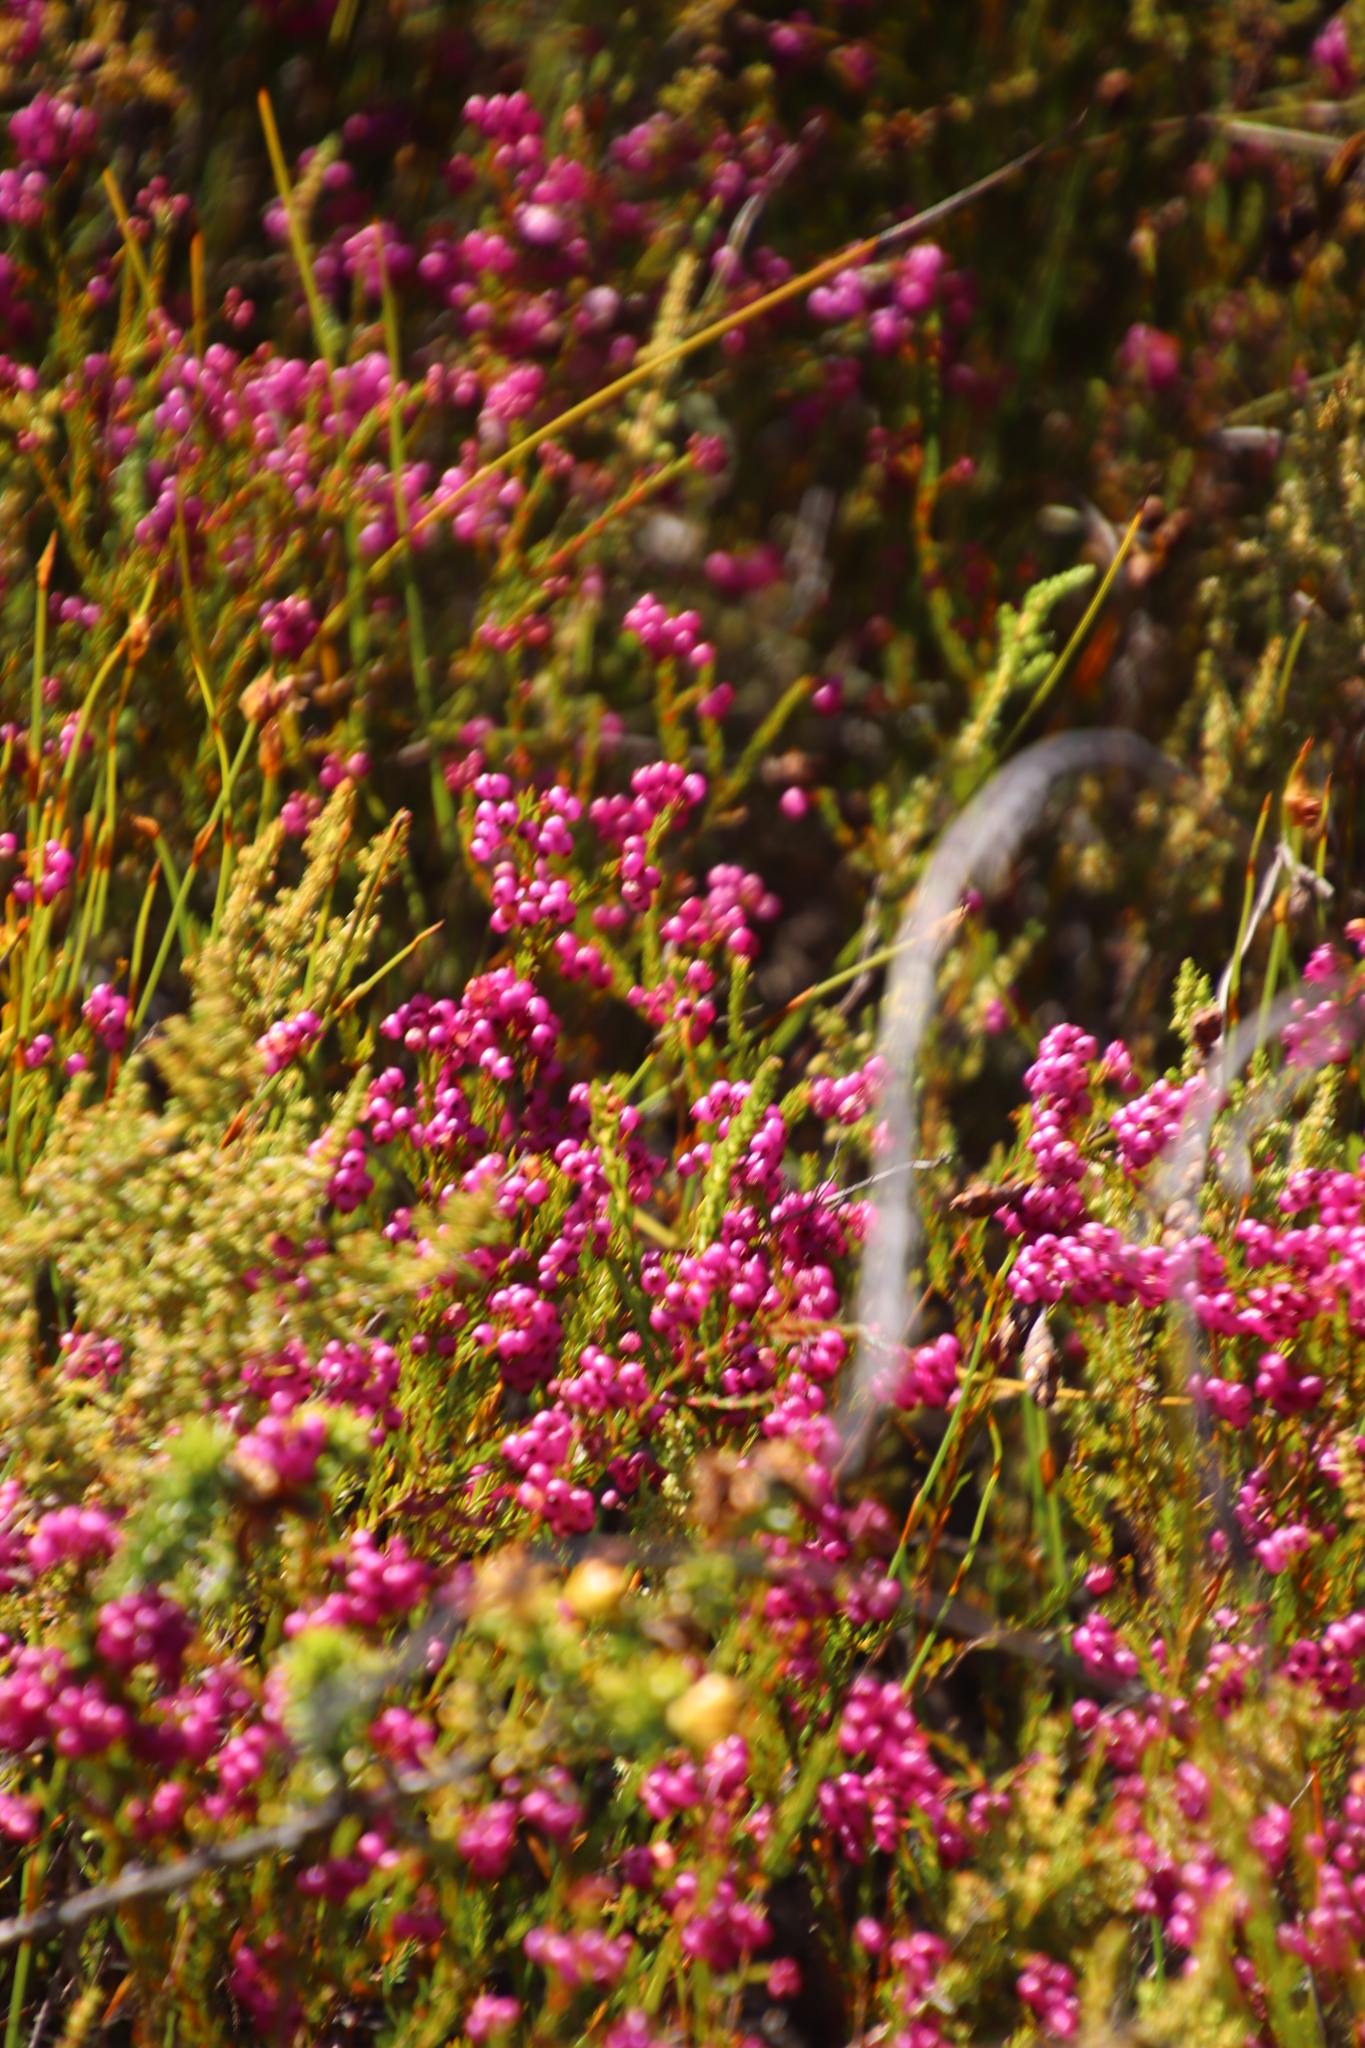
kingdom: Plantae
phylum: Tracheophyta
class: Magnoliopsida
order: Ericales
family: Ericaceae
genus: Erica
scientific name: Erica multumbellifera
